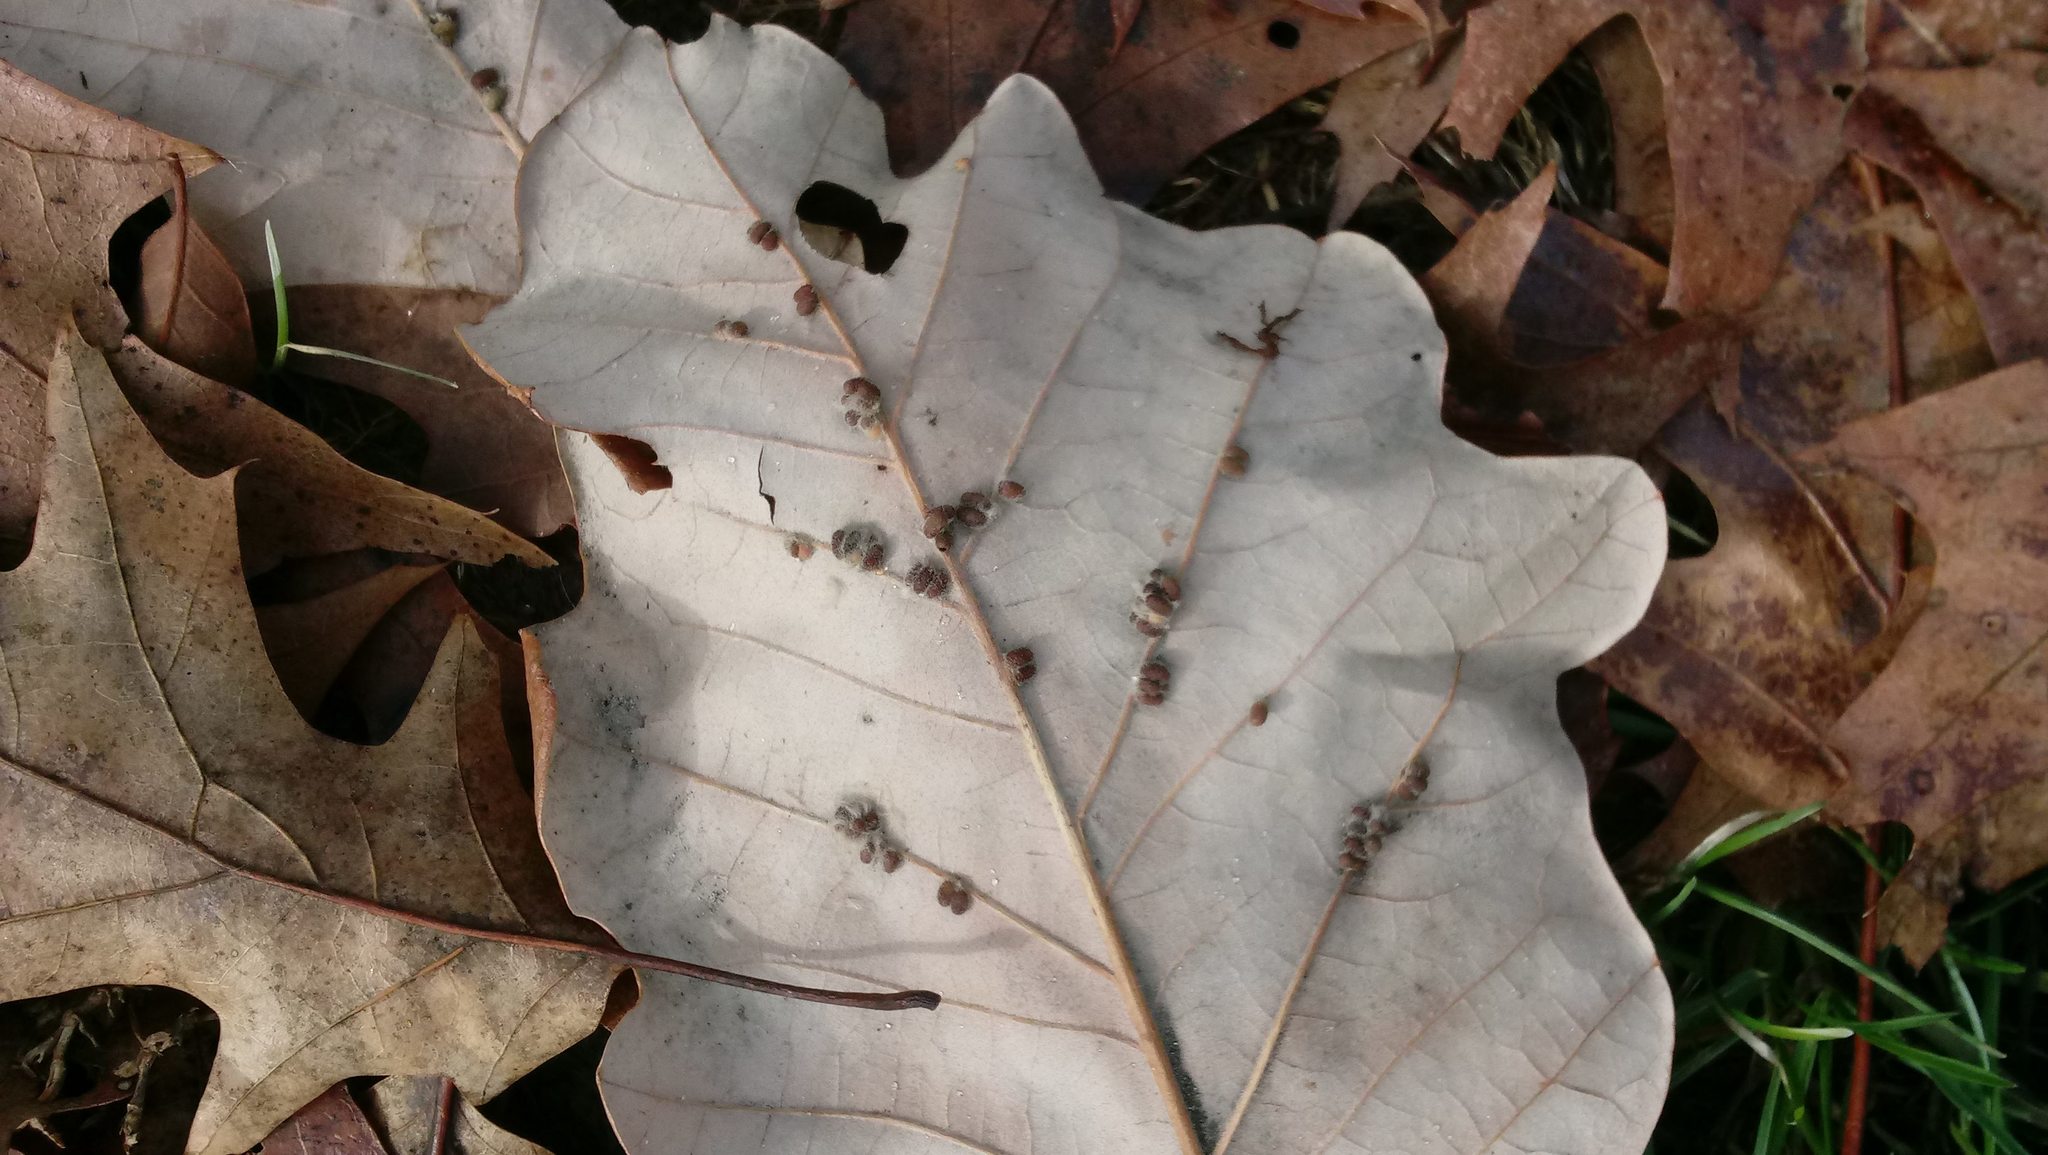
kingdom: Animalia
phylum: Arthropoda
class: Insecta
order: Hymenoptera
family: Cynipidae
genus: Andricus
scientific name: Andricus Druon ignotum
